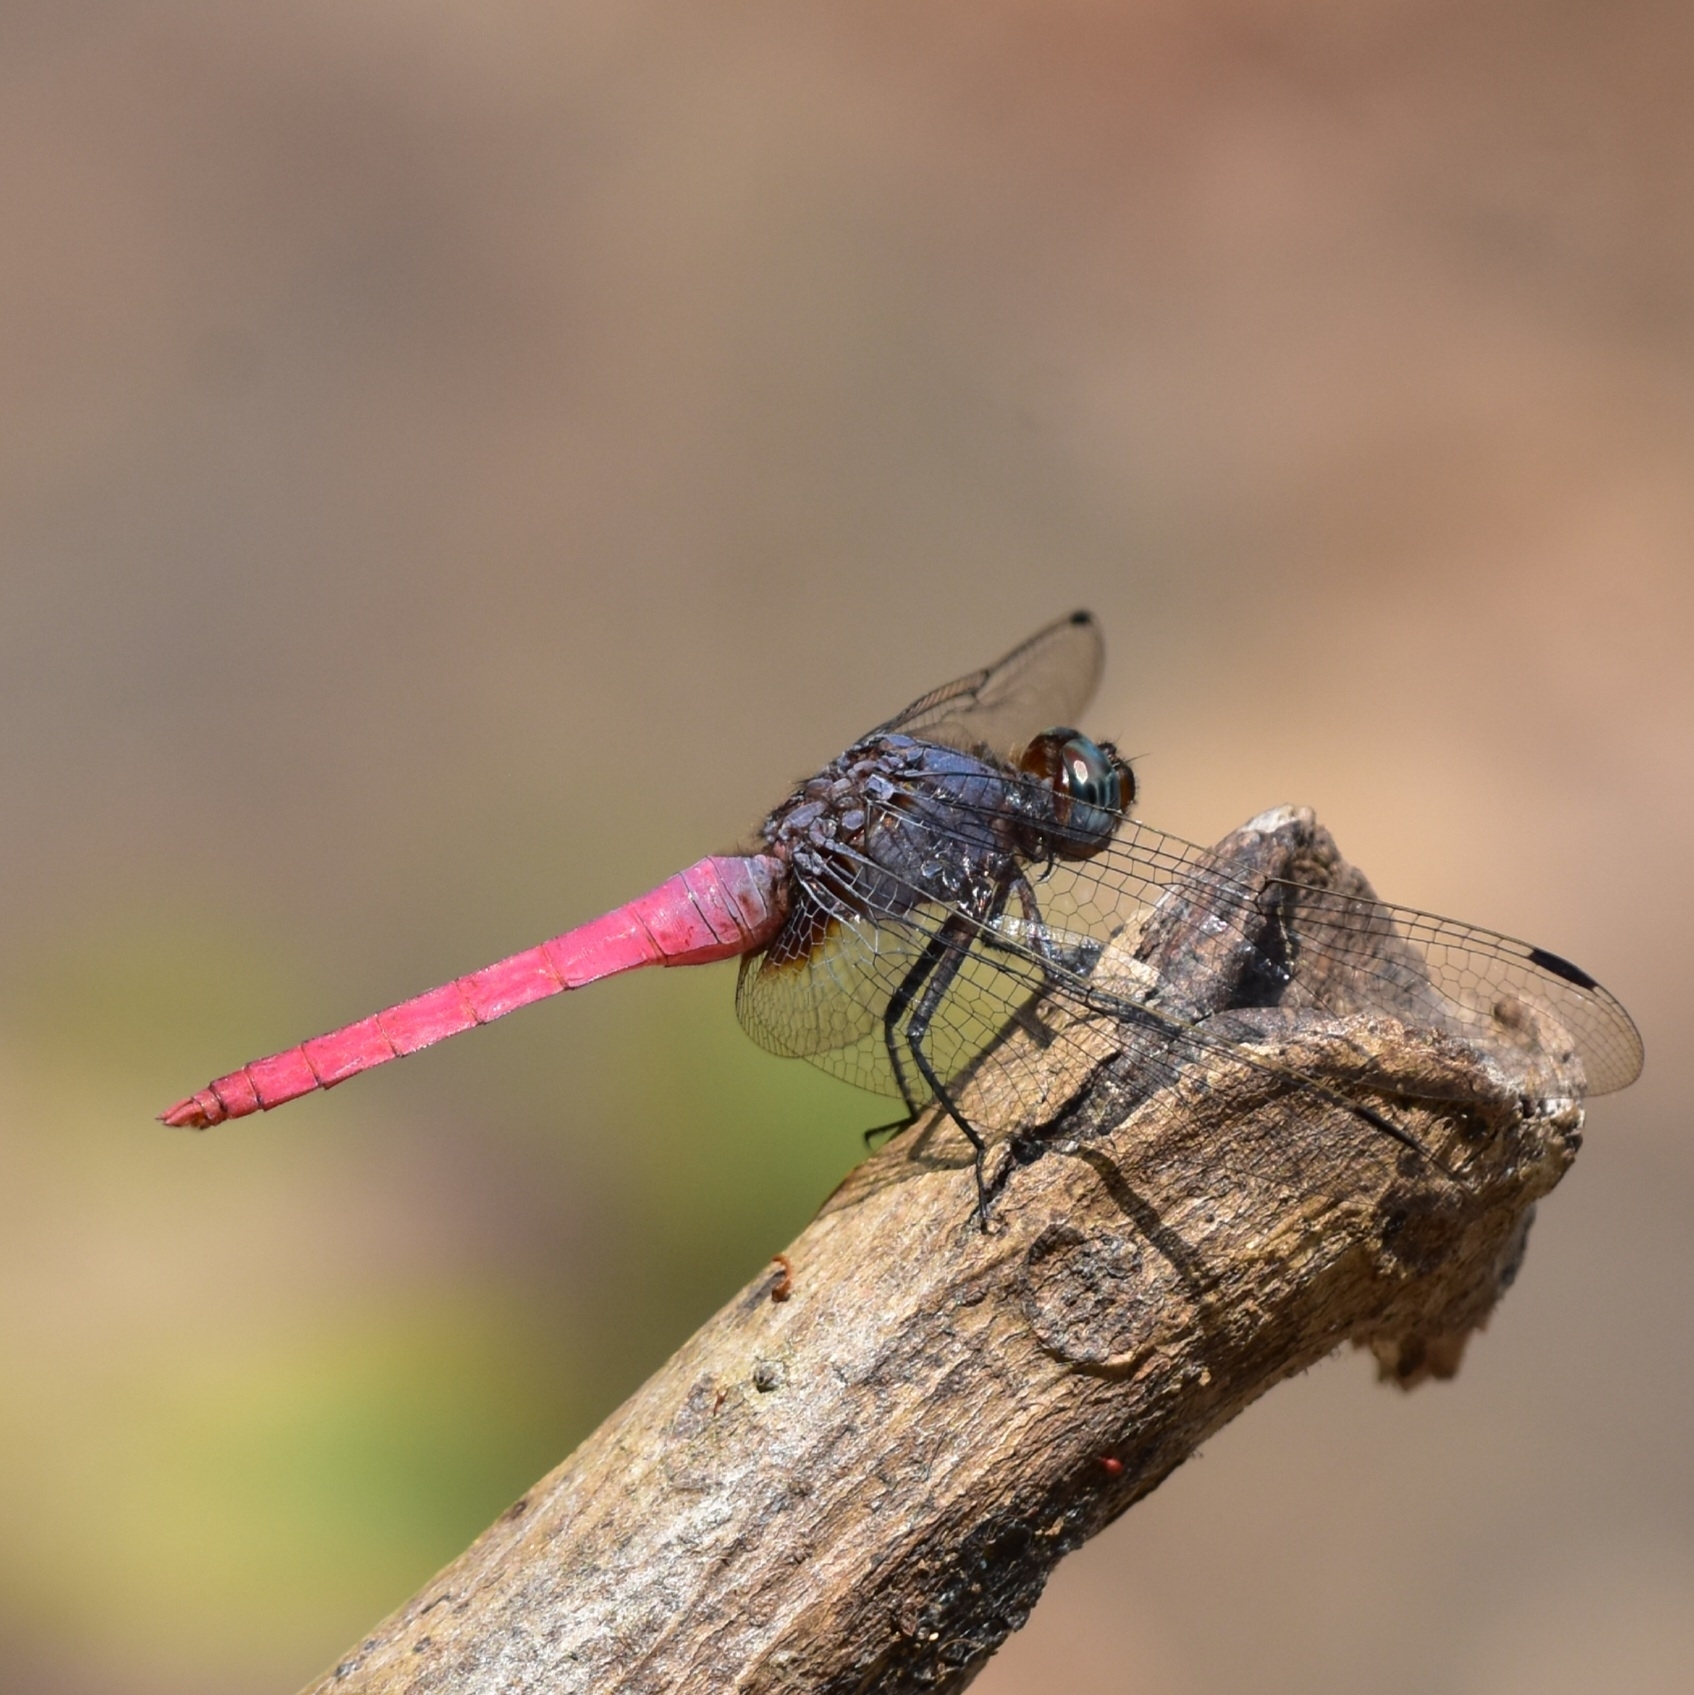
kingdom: Animalia
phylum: Arthropoda
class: Insecta
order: Odonata
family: Libellulidae
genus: Orthetrum
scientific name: Orthetrum pruinosum
